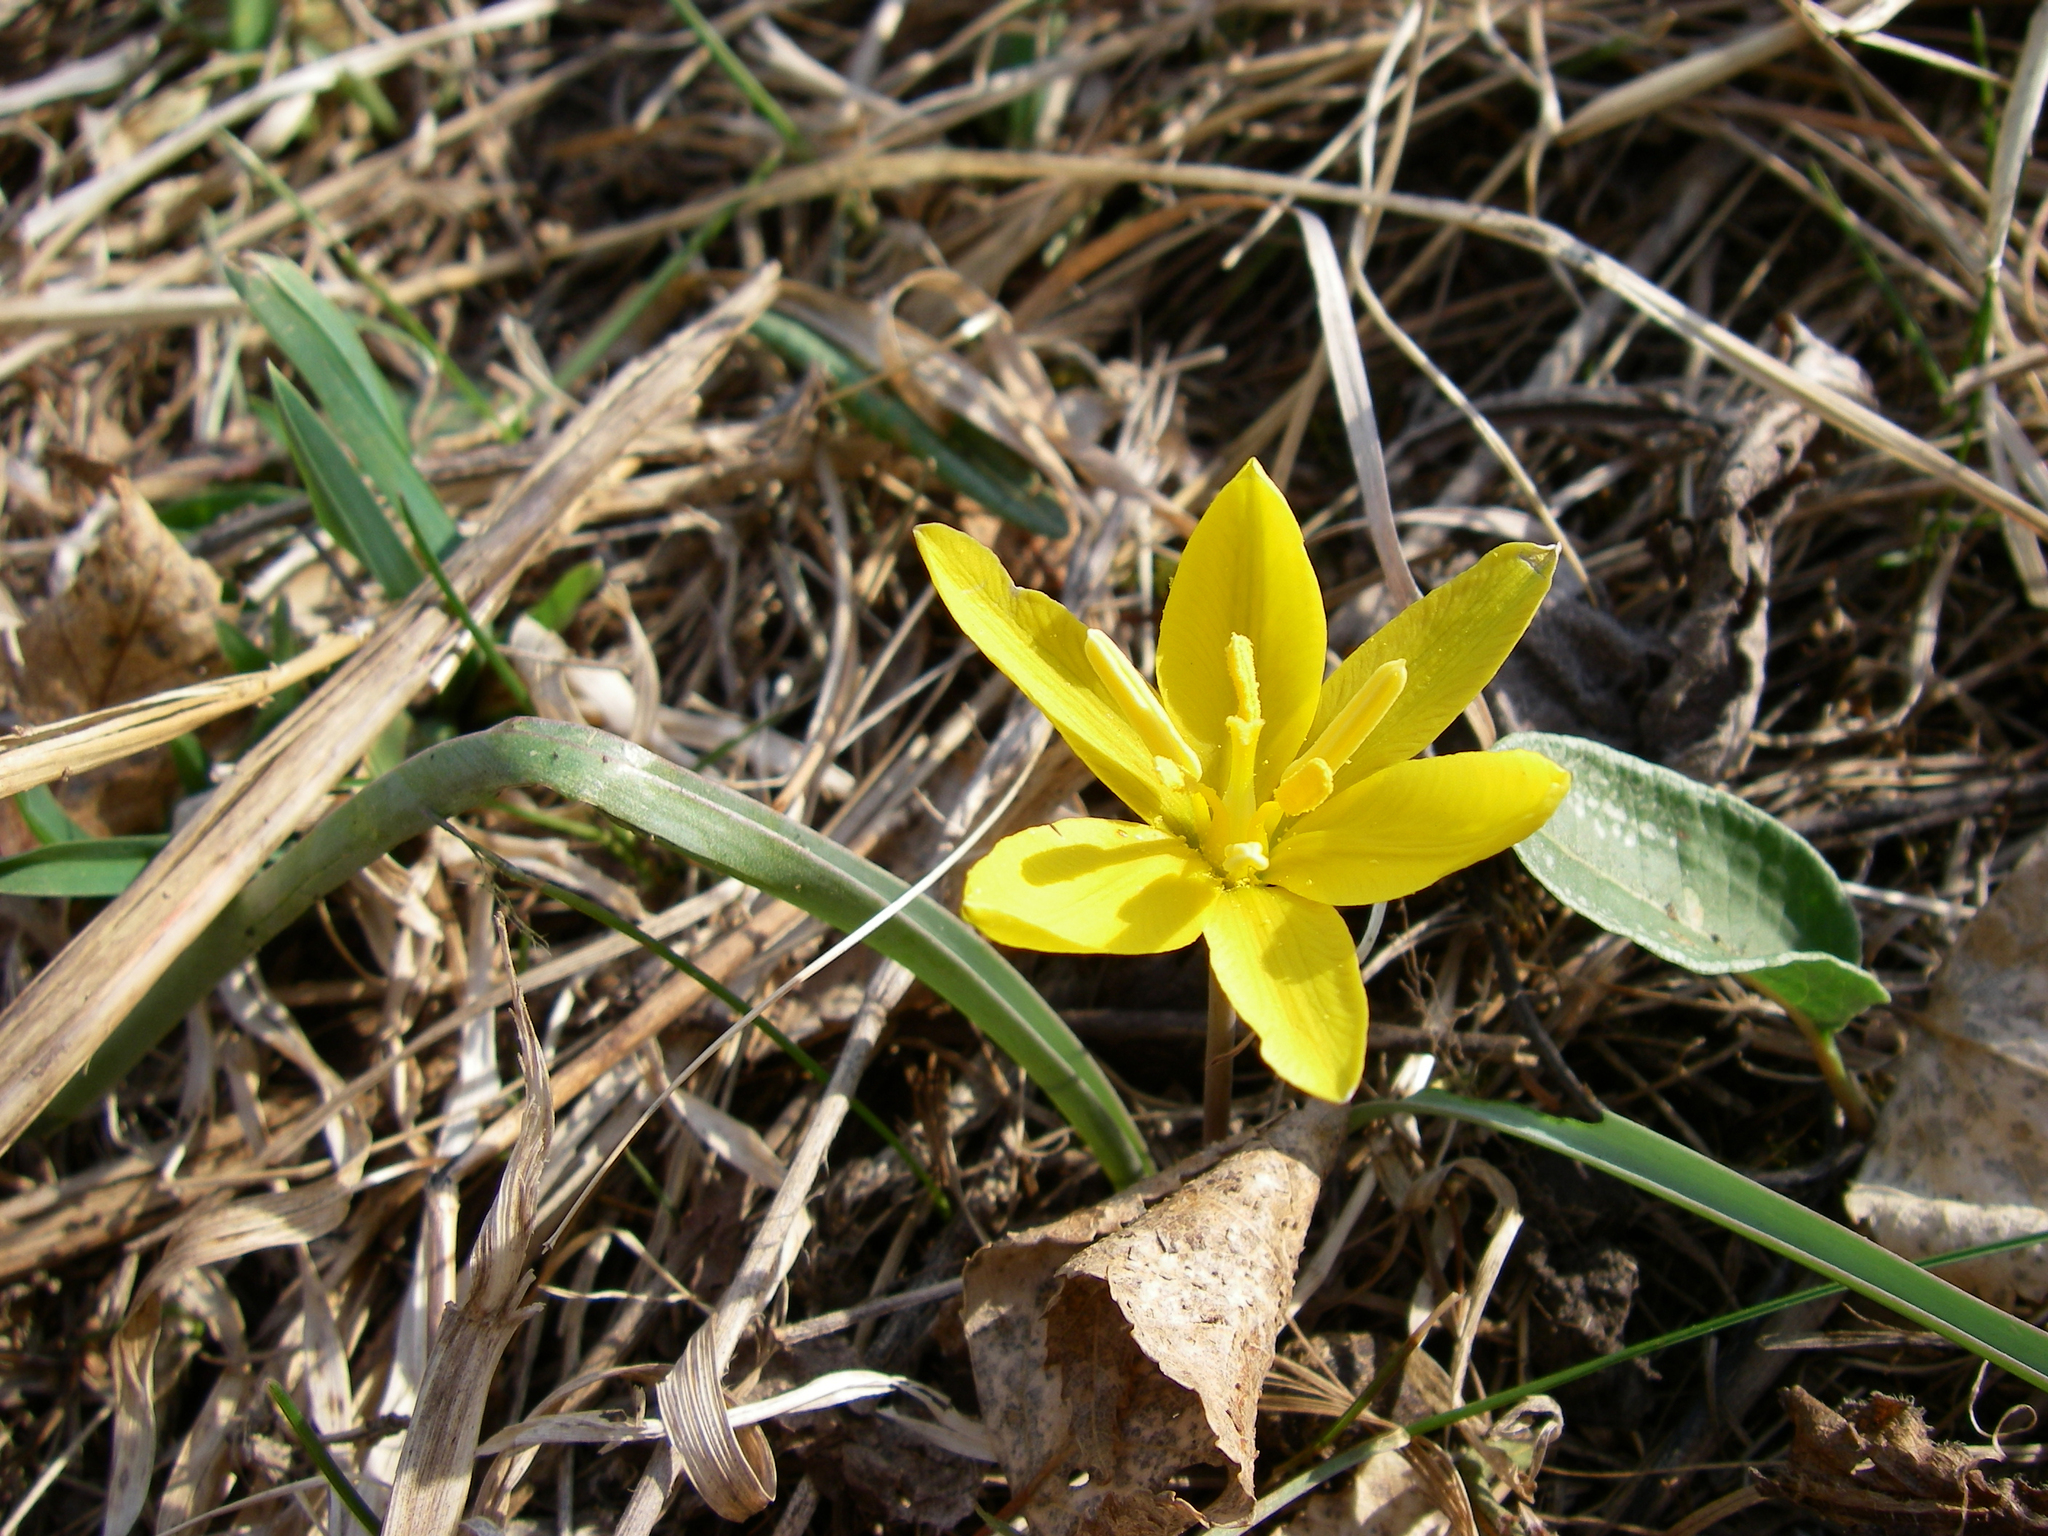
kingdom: Plantae
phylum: Tracheophyta
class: Liliopsida
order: Liliales
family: Liliaceae
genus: Tulipa
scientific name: Tulipa uniflora
